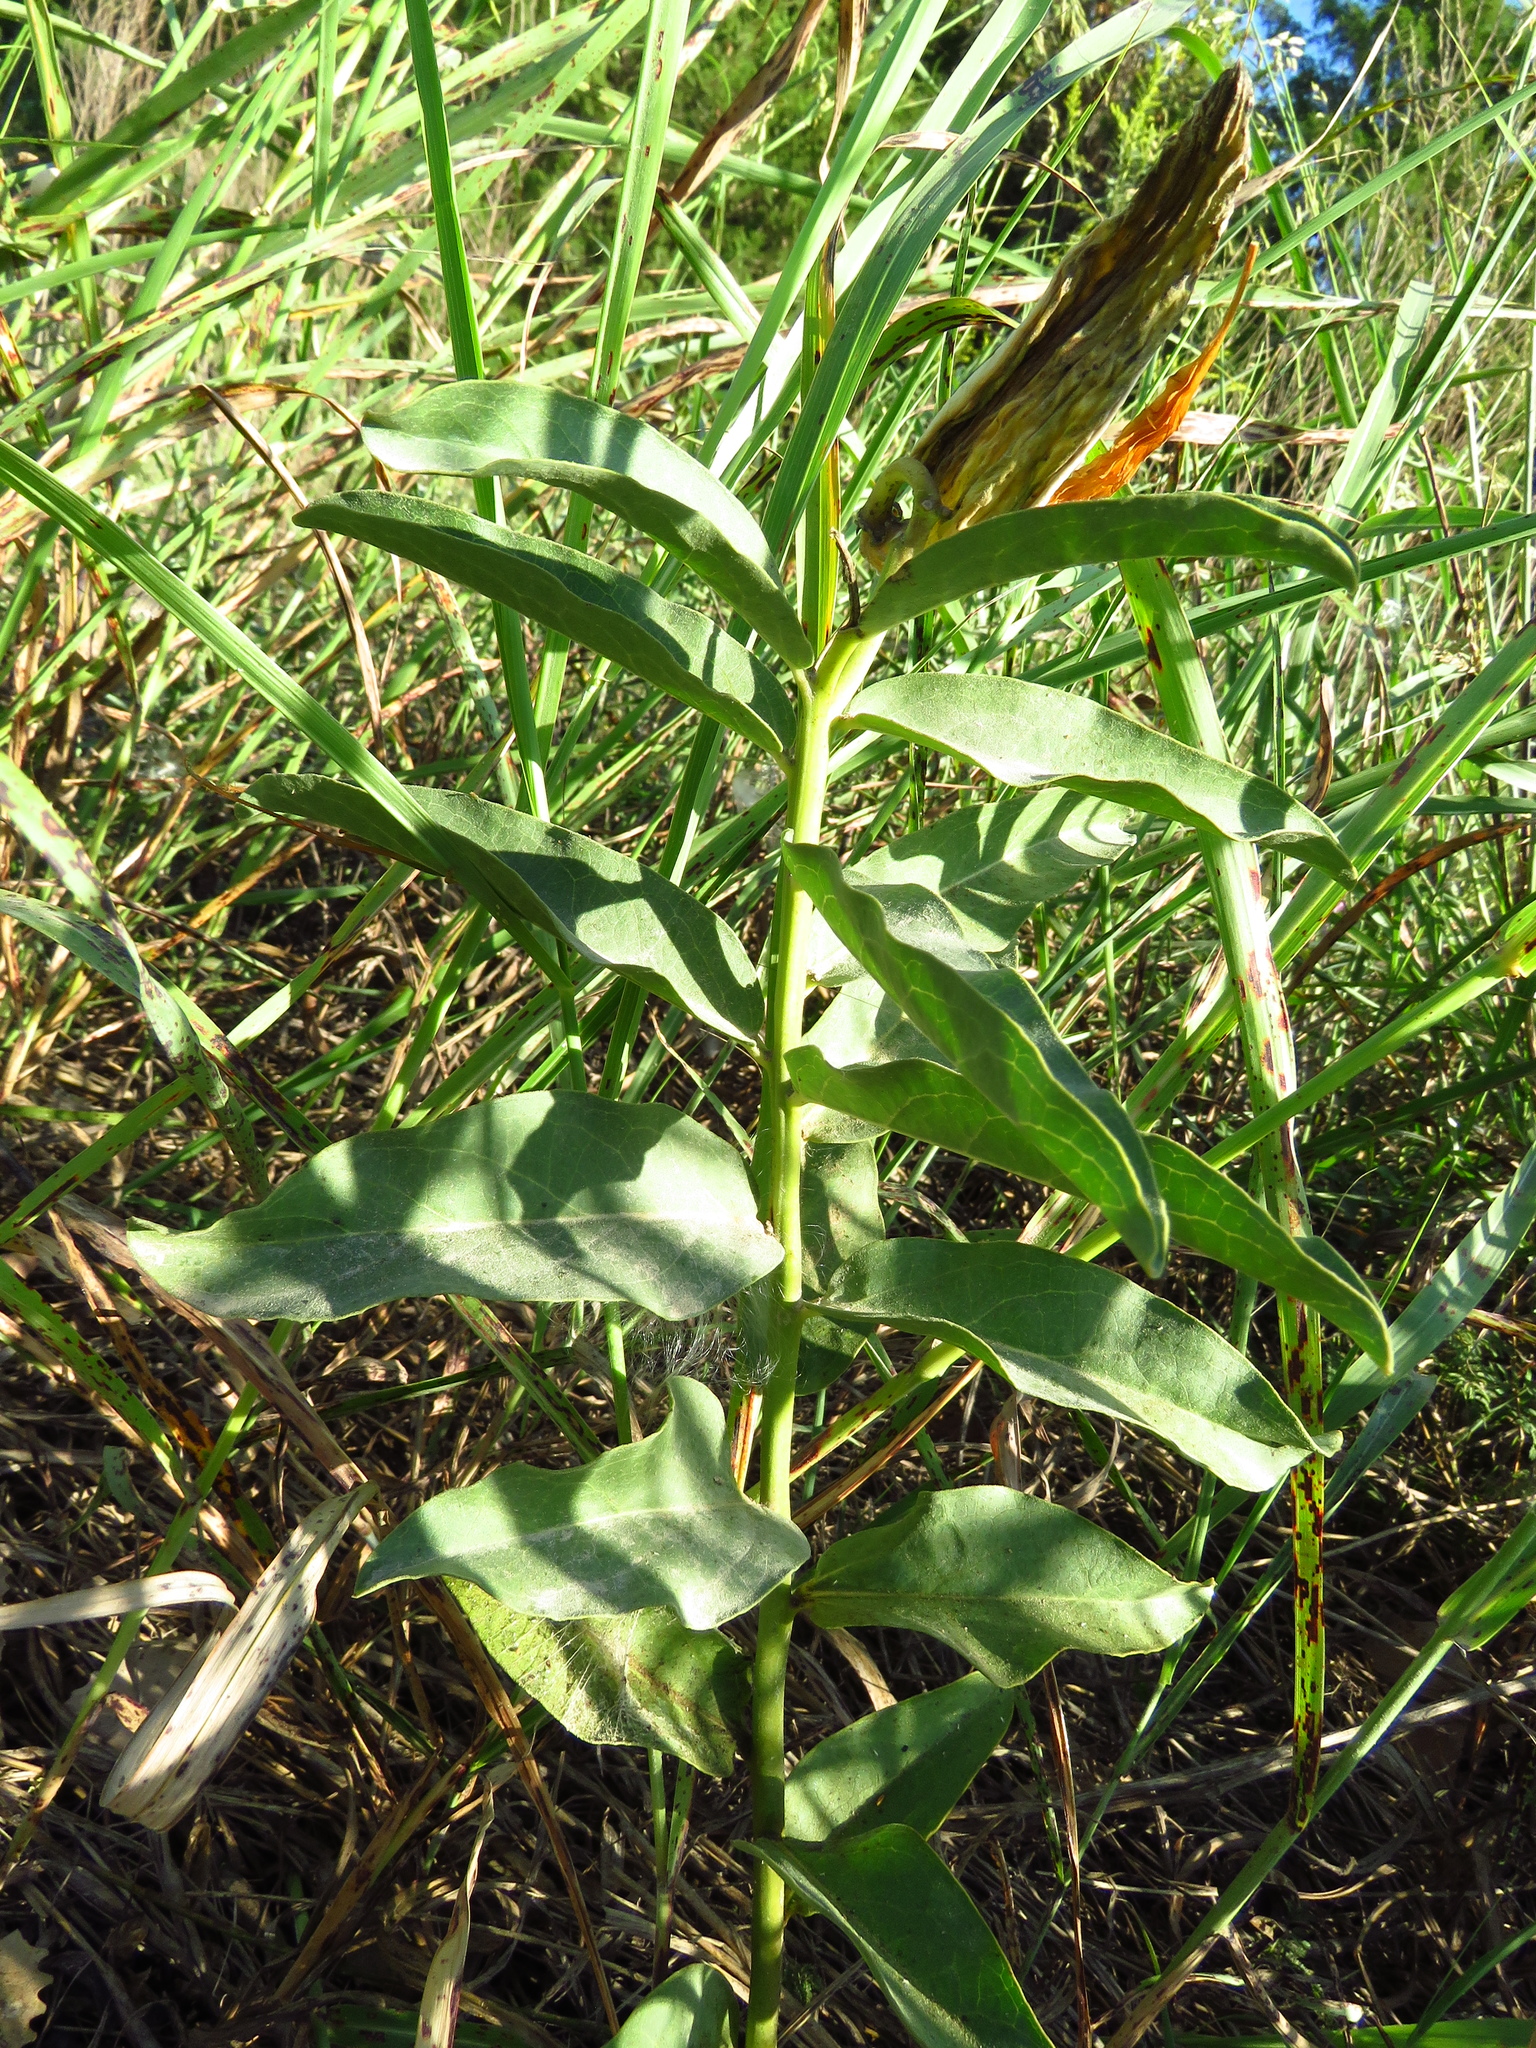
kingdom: Plantae
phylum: Tracheophyta
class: Magnoliopsida
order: Gentianales
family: Apocynaceae
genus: Asclepias
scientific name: Asclepias viridis
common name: Antelope-horns
